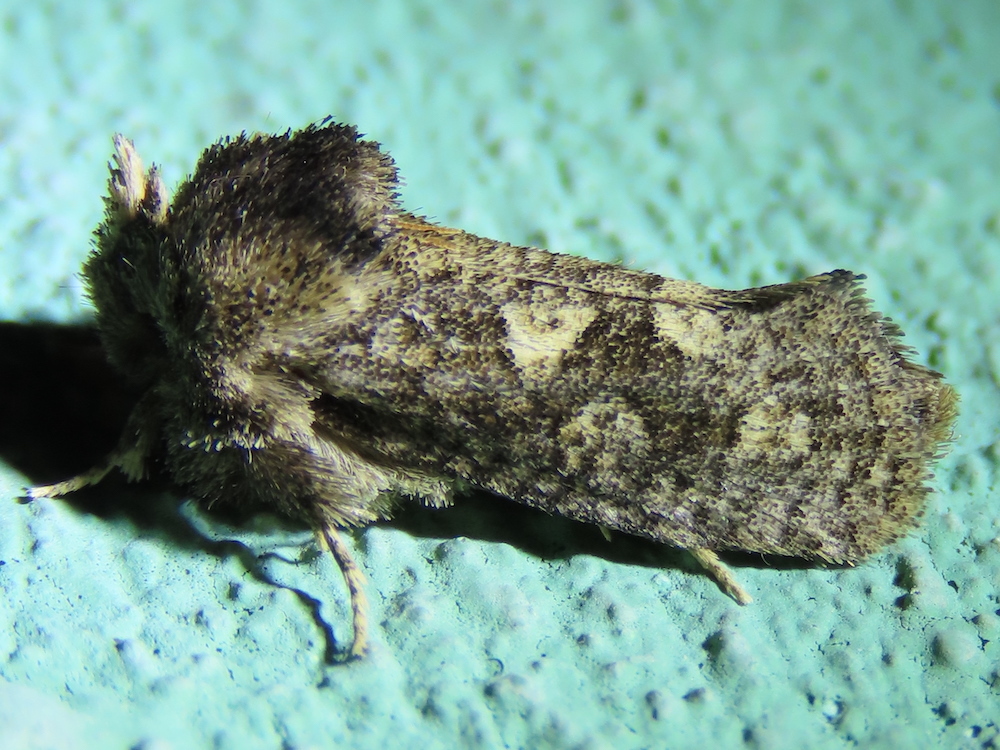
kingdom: Animalia
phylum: Arthropoda
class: Insecta
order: Lepidoptera
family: Tineidae
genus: Acrolophus
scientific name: Acrolophus arcanella
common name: Arcane grass tubeworm moth
